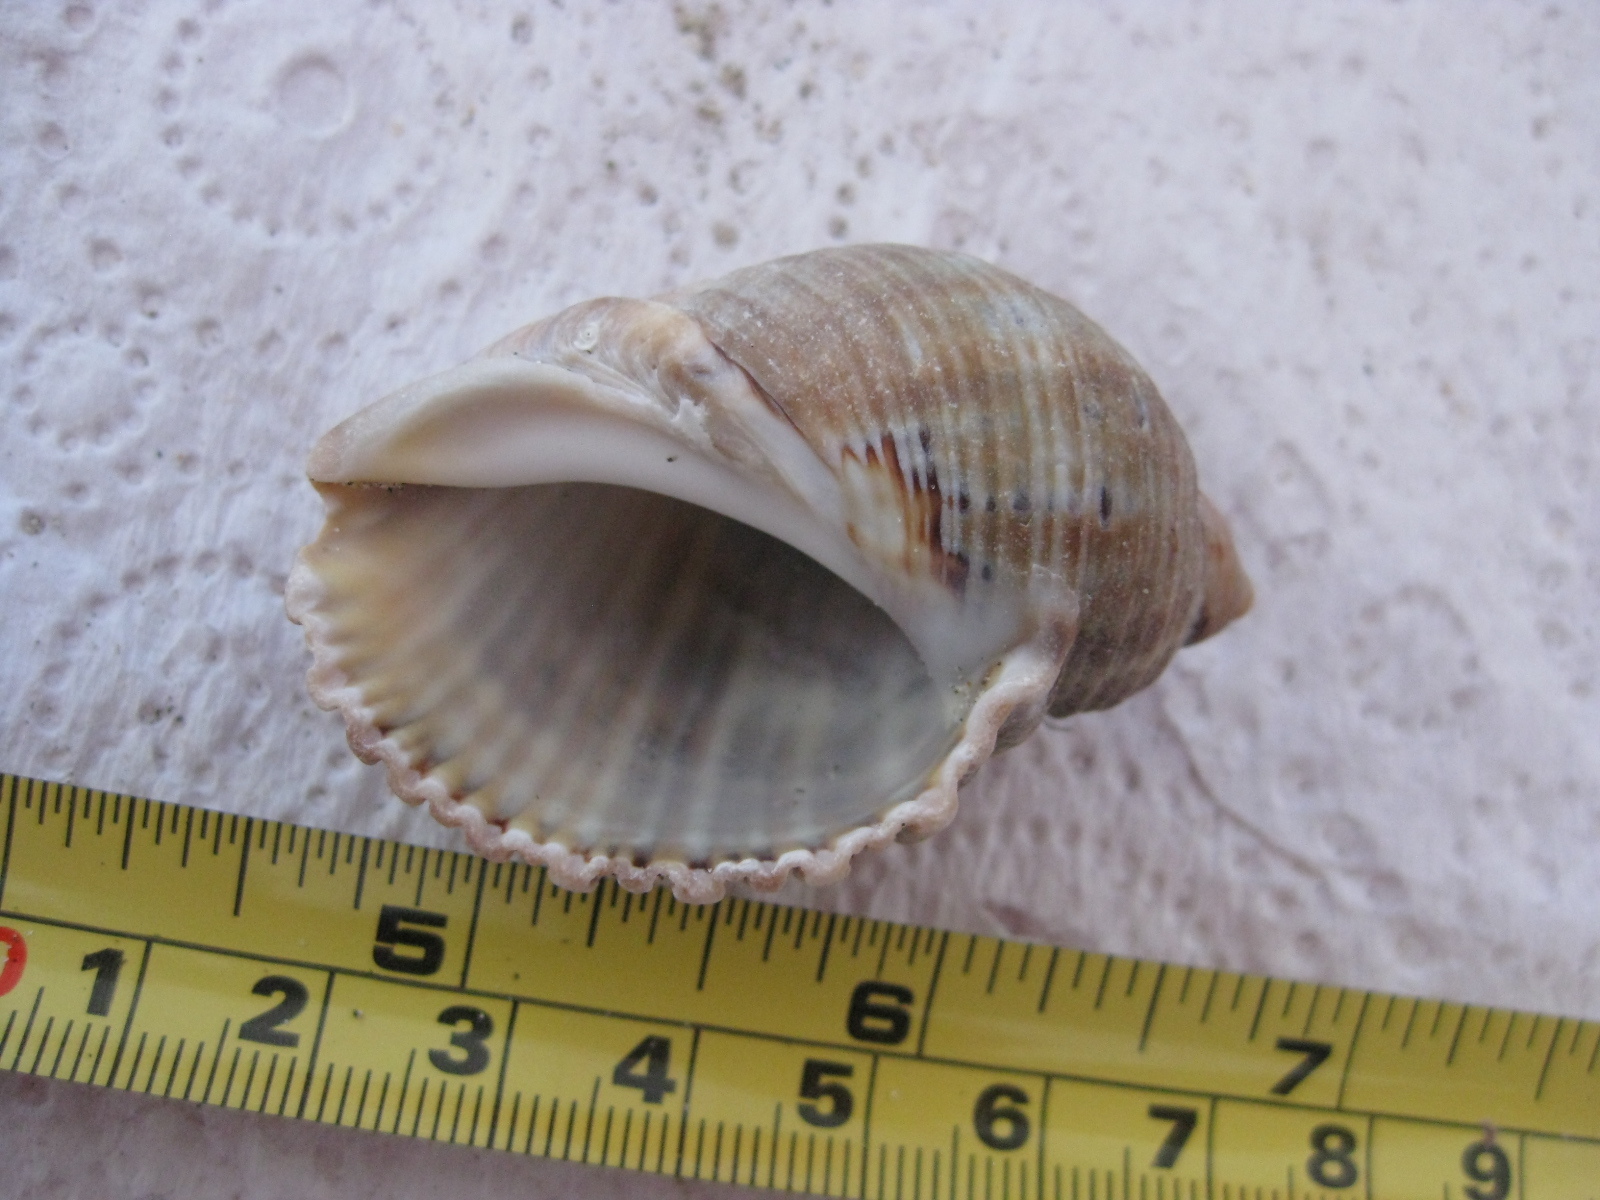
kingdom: Animalia
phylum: Mollusca
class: Gastropoda
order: Neogastropoda
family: Muricidae
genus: Dicathais
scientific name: Dicathais orbita
